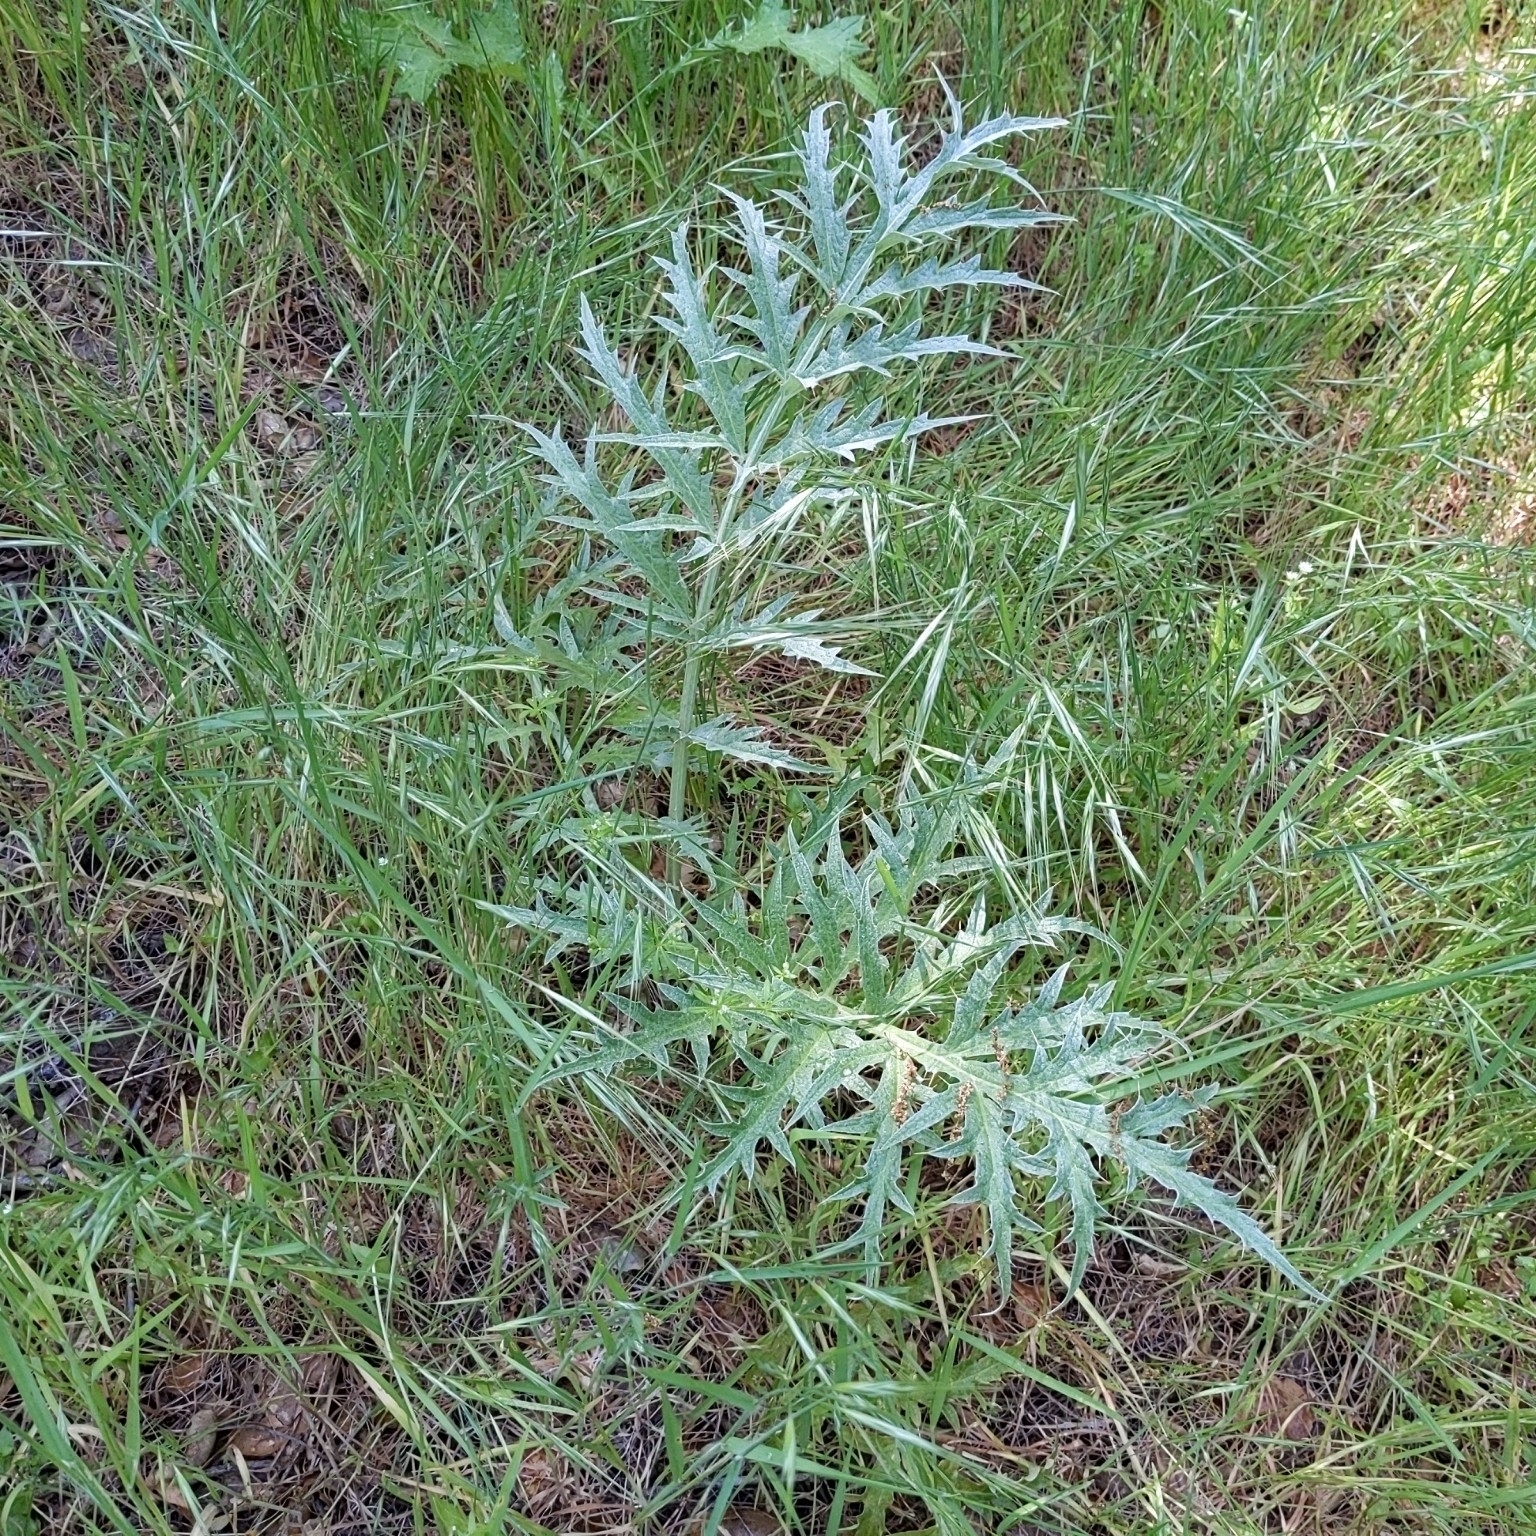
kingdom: Plantae
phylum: Tracheophyta
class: Magnoliopsida
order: Asterales
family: Asteraceae
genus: Cynara
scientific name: Cynara cardunculus
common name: Globe artichoke
